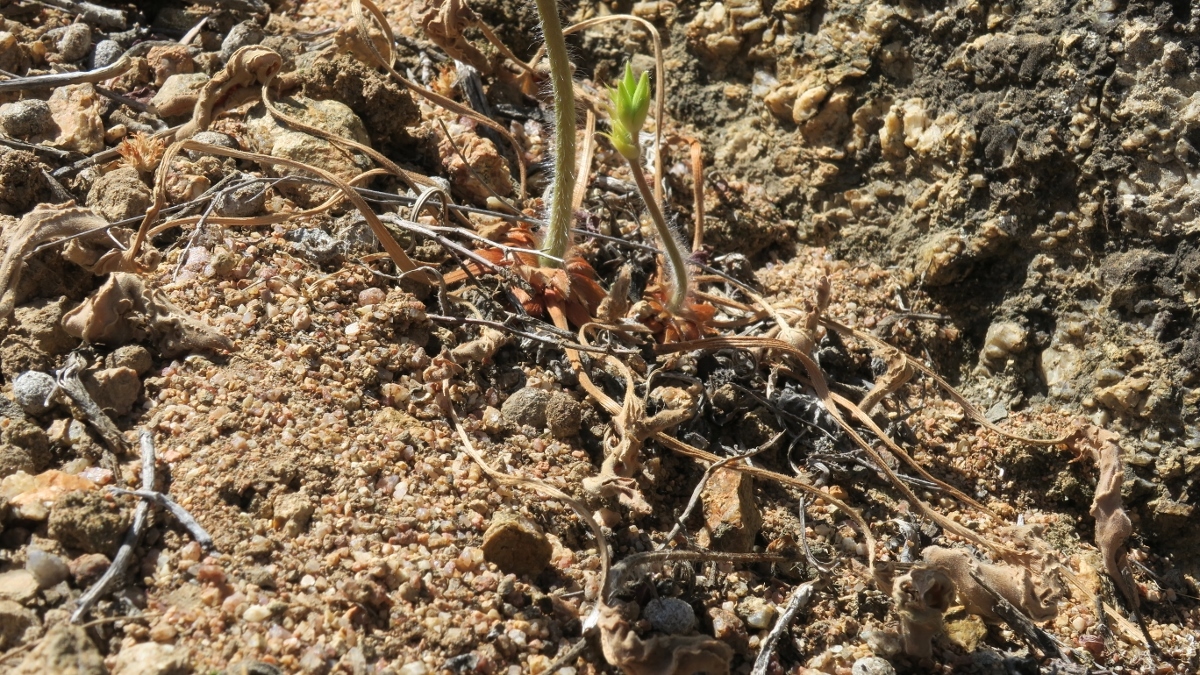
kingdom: Plantae
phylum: Tracheophyta
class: Magnoliopsida
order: Geraniales
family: Geraniaceae
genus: Pelargonium
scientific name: Pelargonium oblongatum
